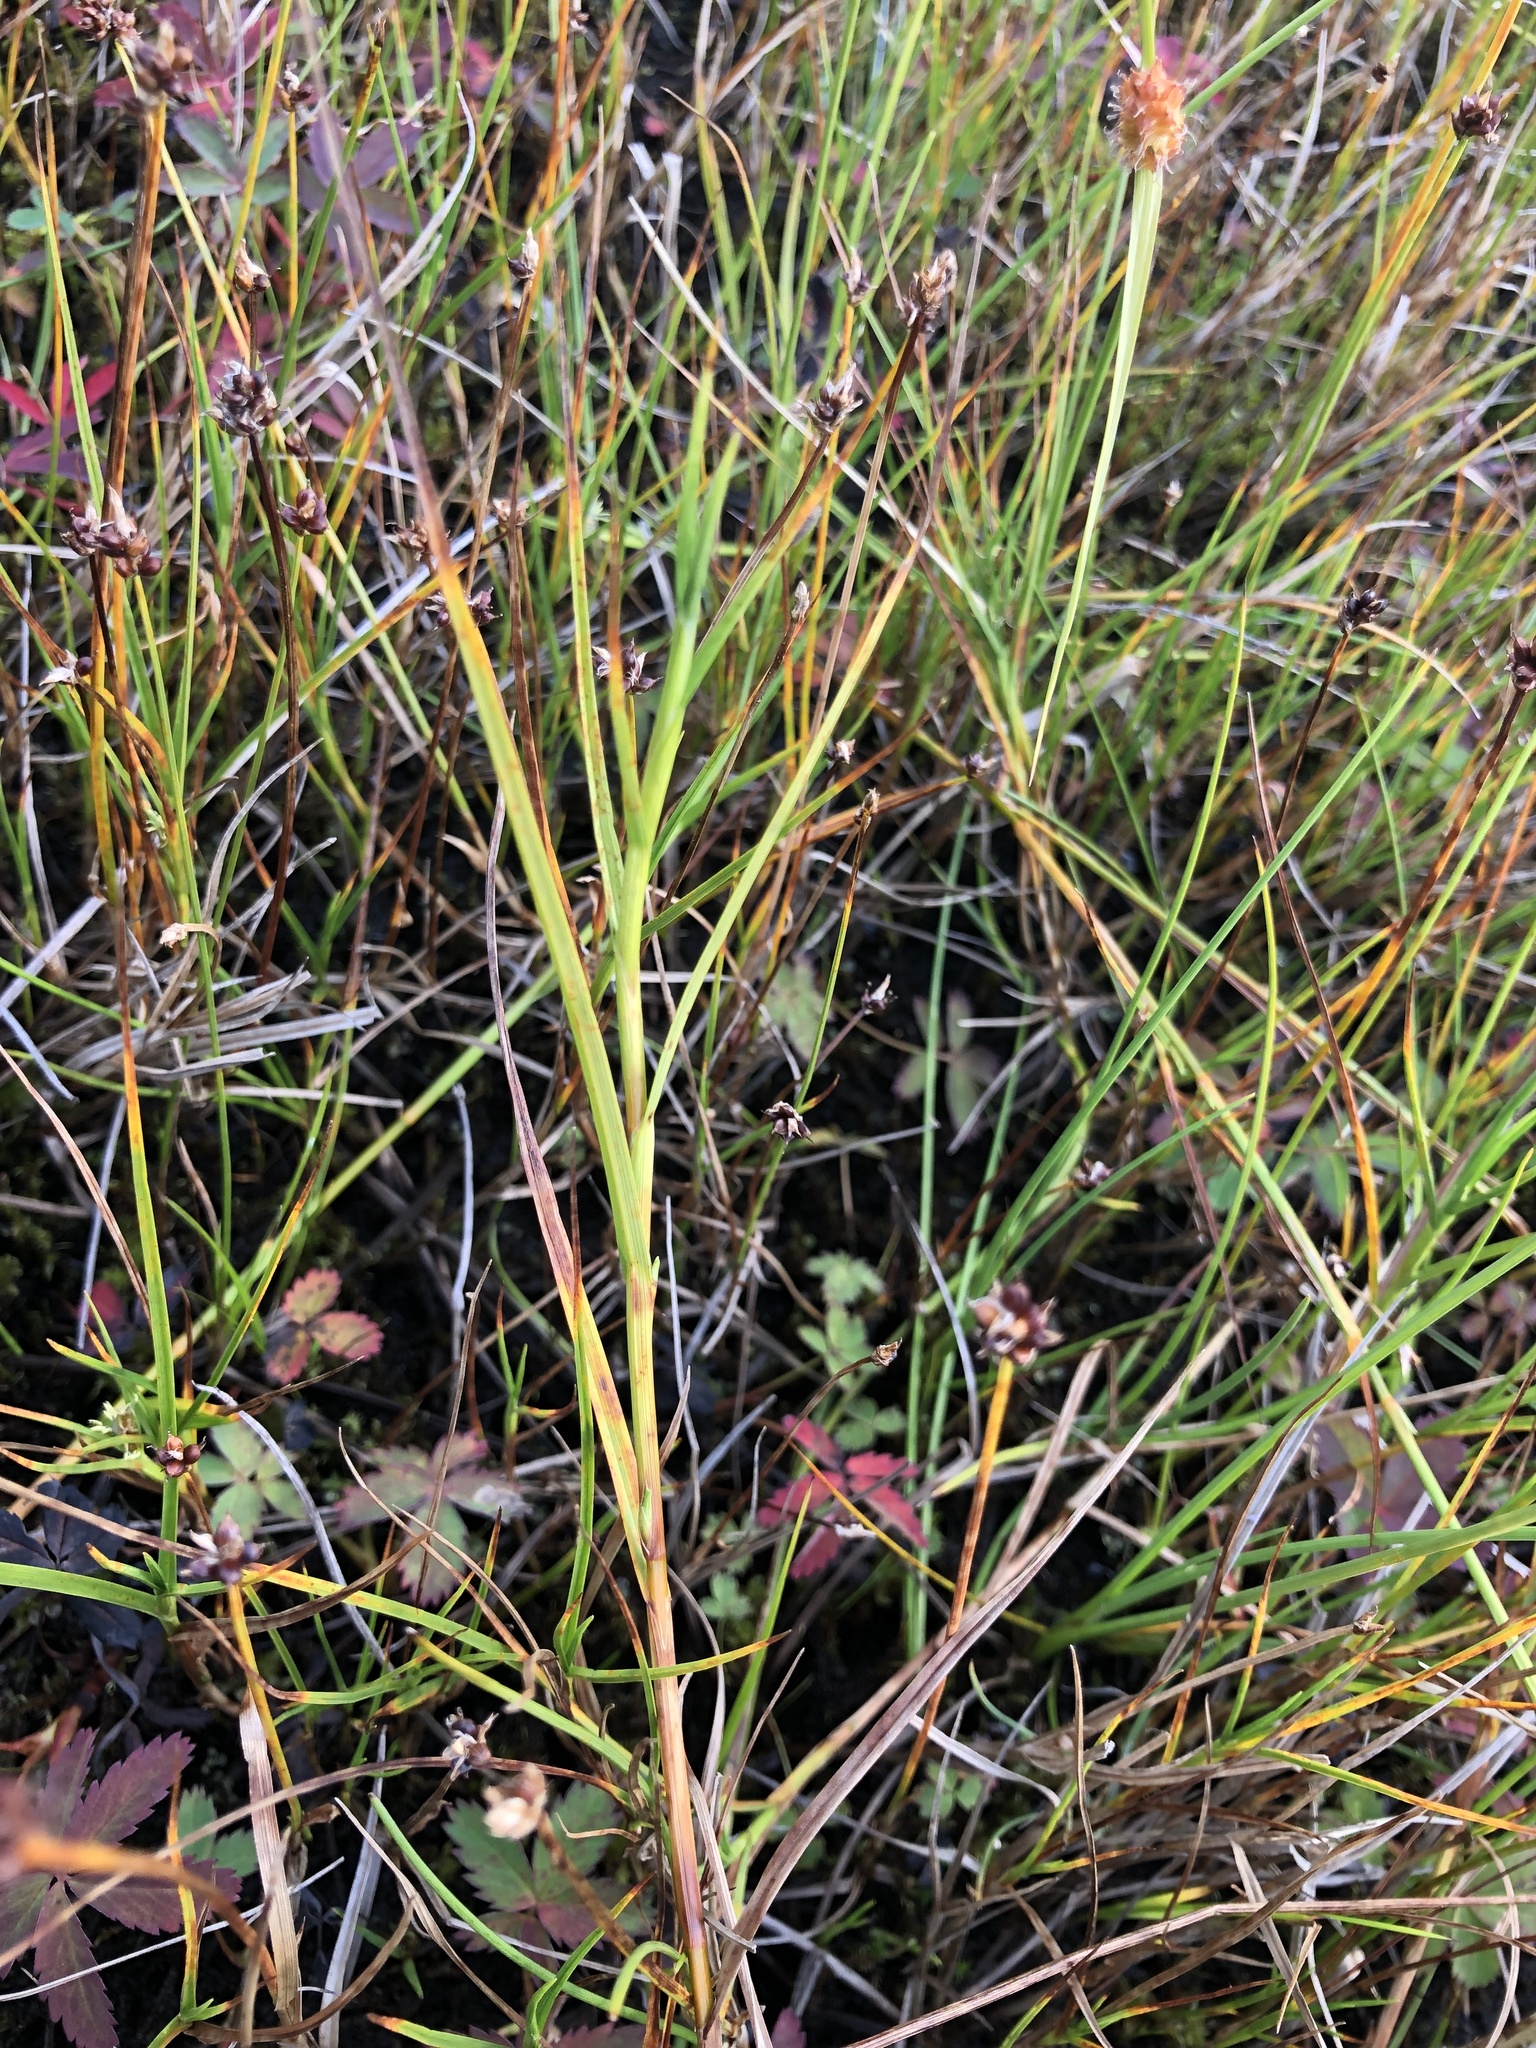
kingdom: Plantae
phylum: Tracheophyta
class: Liliopsida
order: Poales
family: Cyperaceae
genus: Carex
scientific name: Carex chordorrhiza
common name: String sedge
